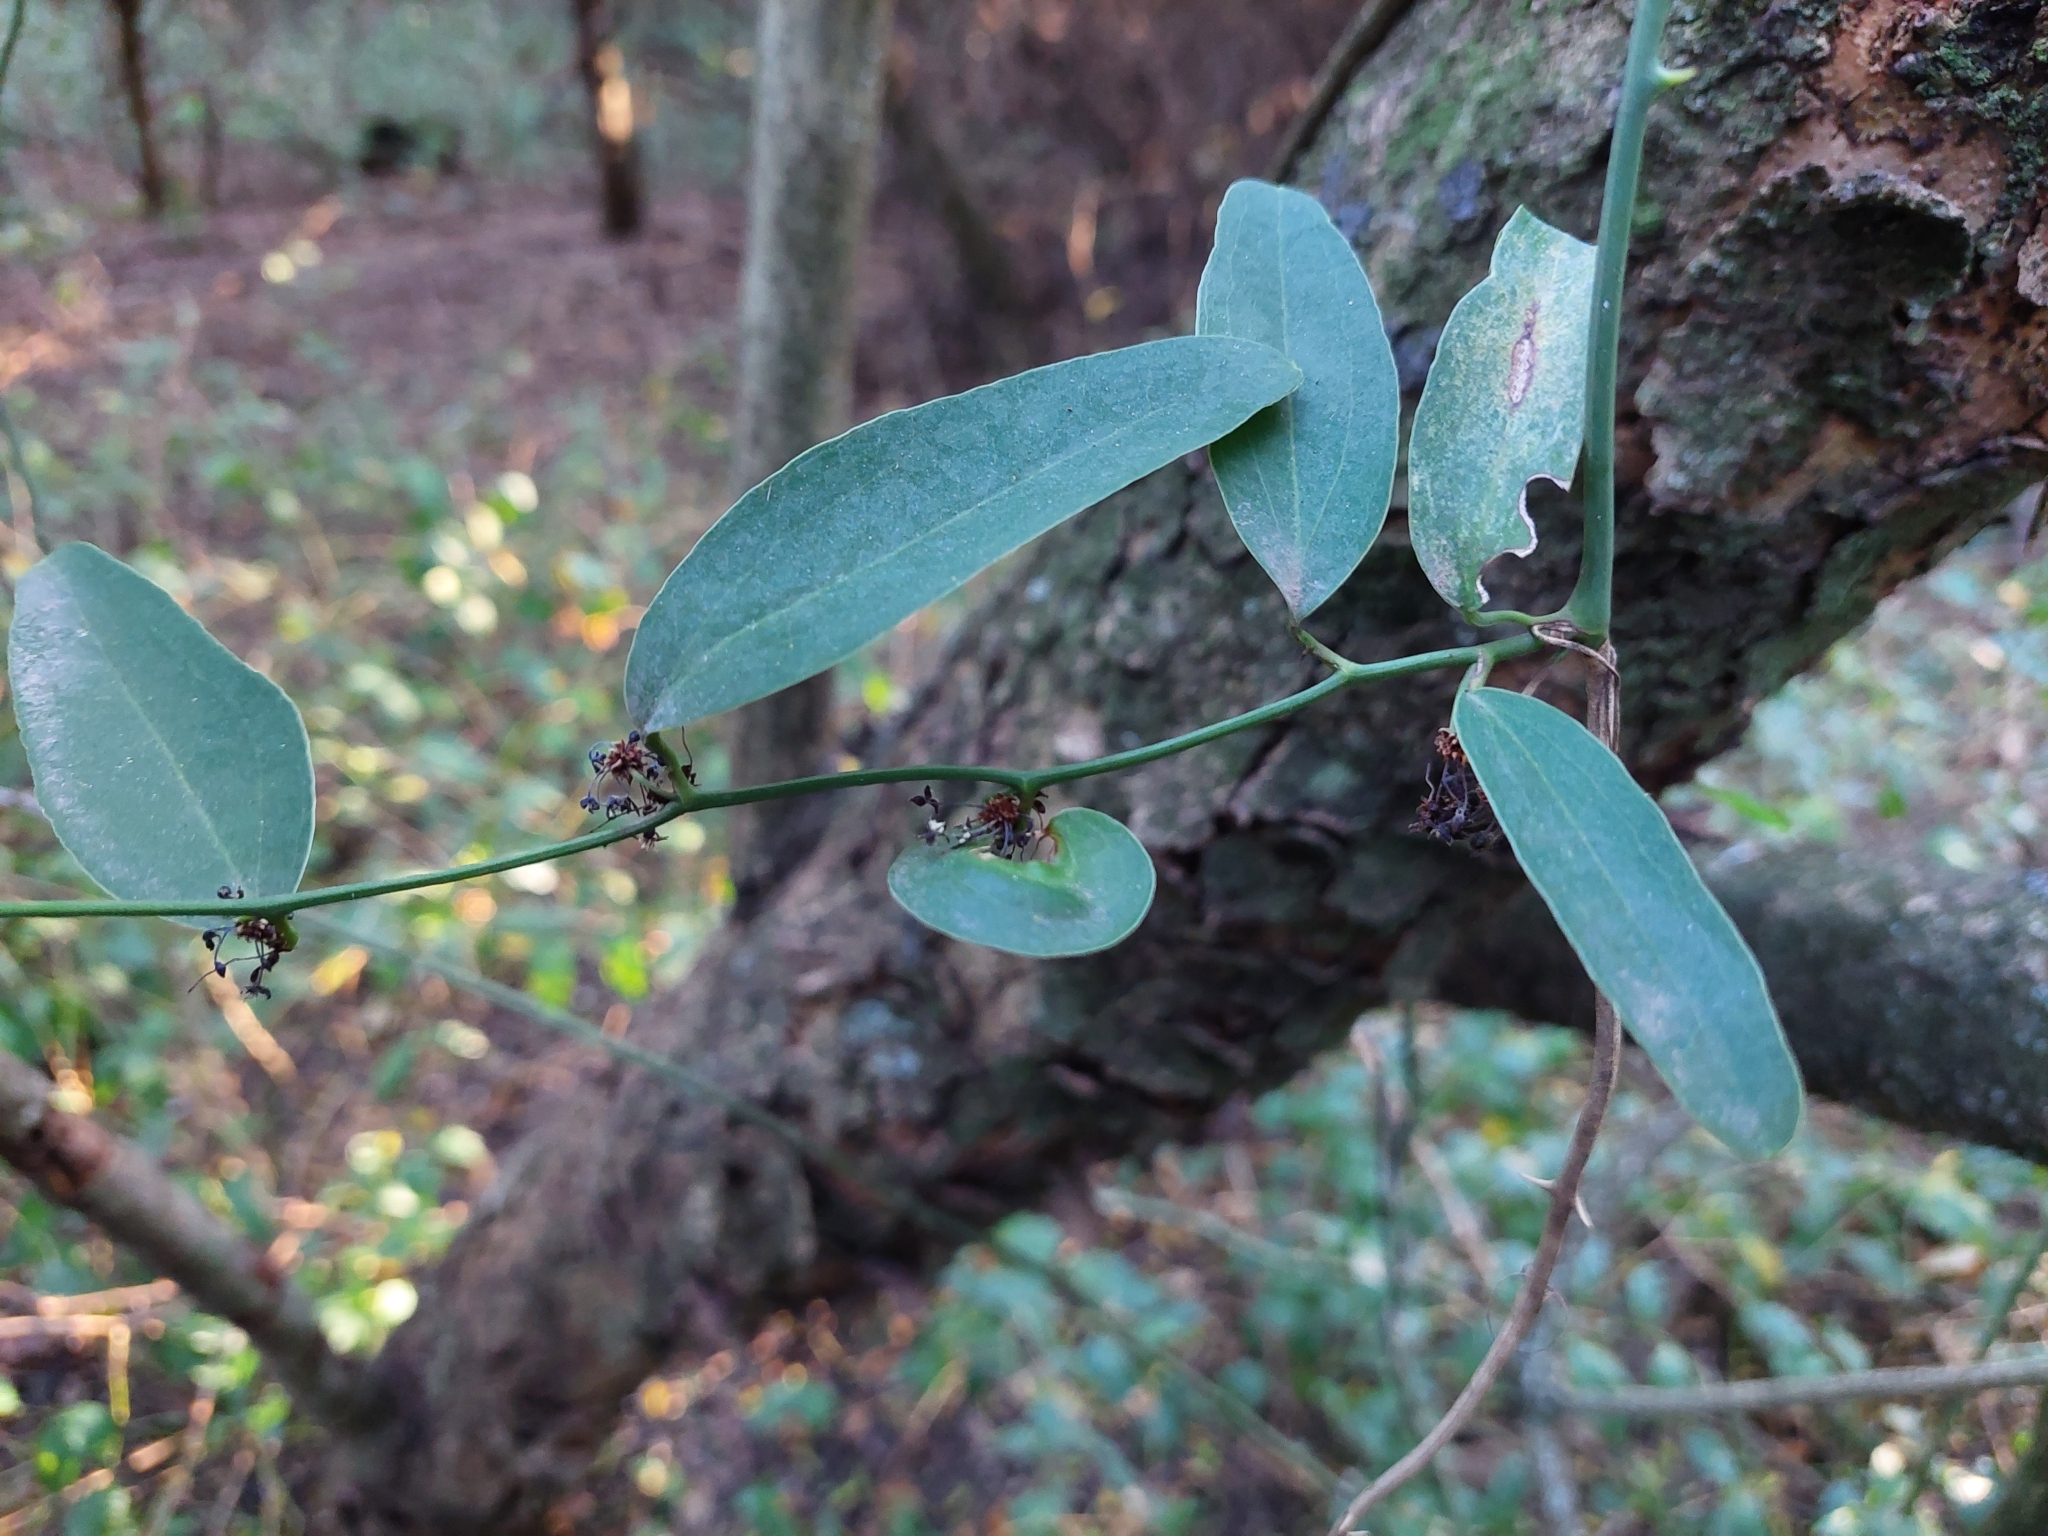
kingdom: Plantae
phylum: Tracheophyta
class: Liliopsida
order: Liliales
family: Smilacaceae
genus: Smilax
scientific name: Smilax campestris
